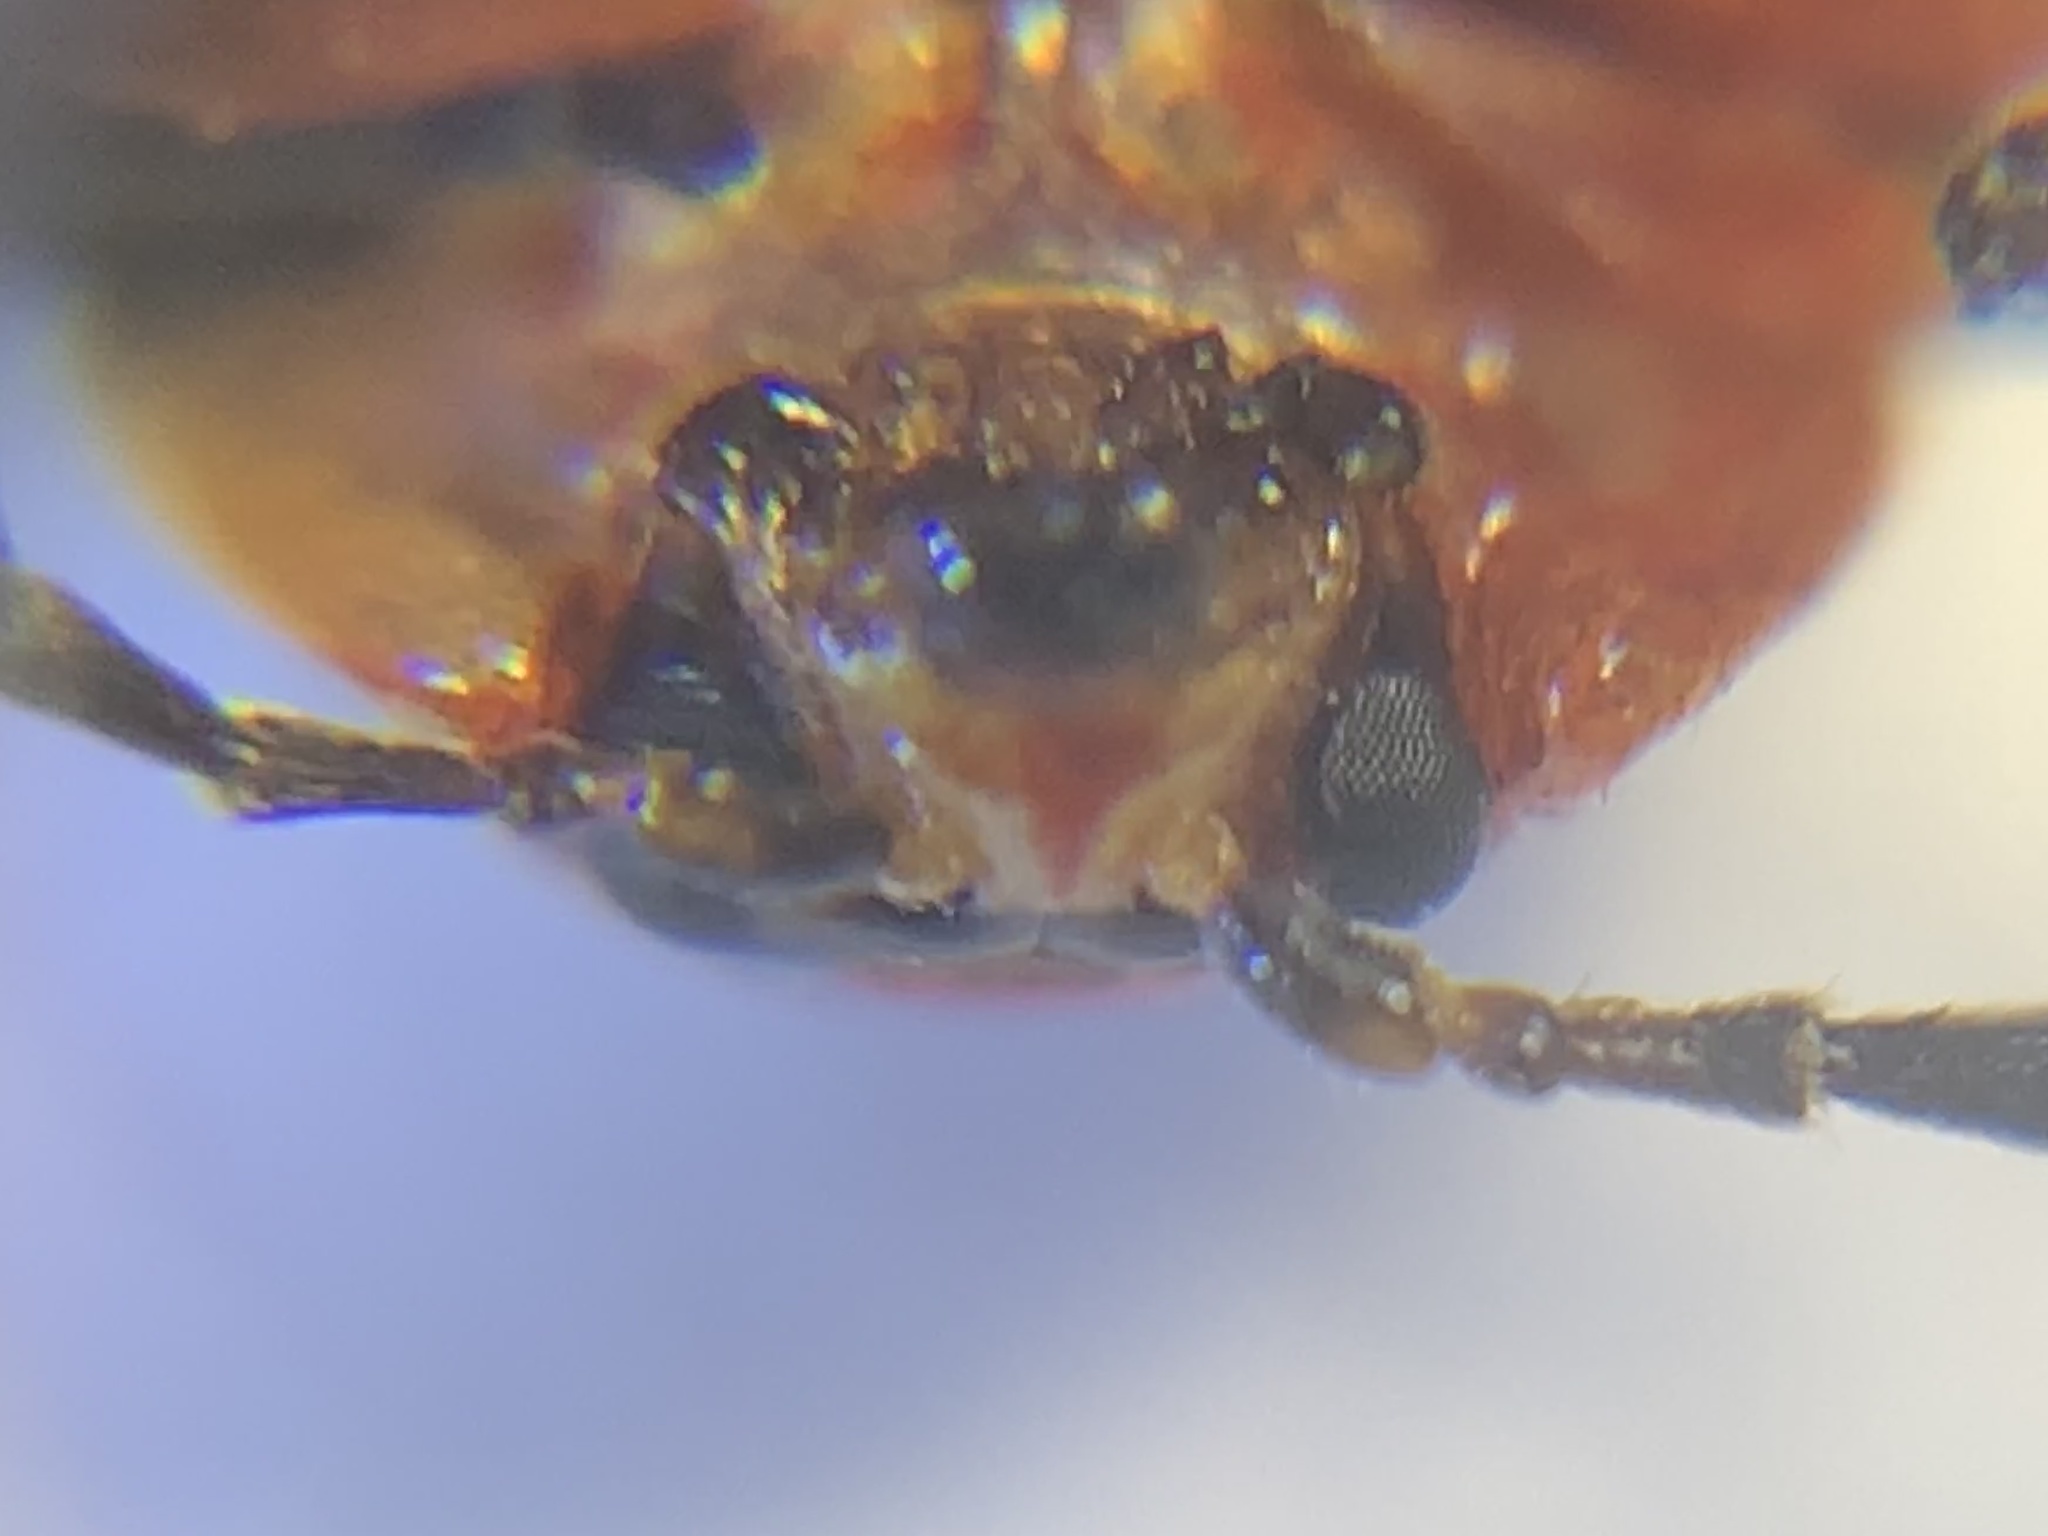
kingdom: Animalia
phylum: Arthropoda
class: Insecta
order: Coleoptera
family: Chrysomelidae
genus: Asphaera
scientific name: Asphaera lustrans
